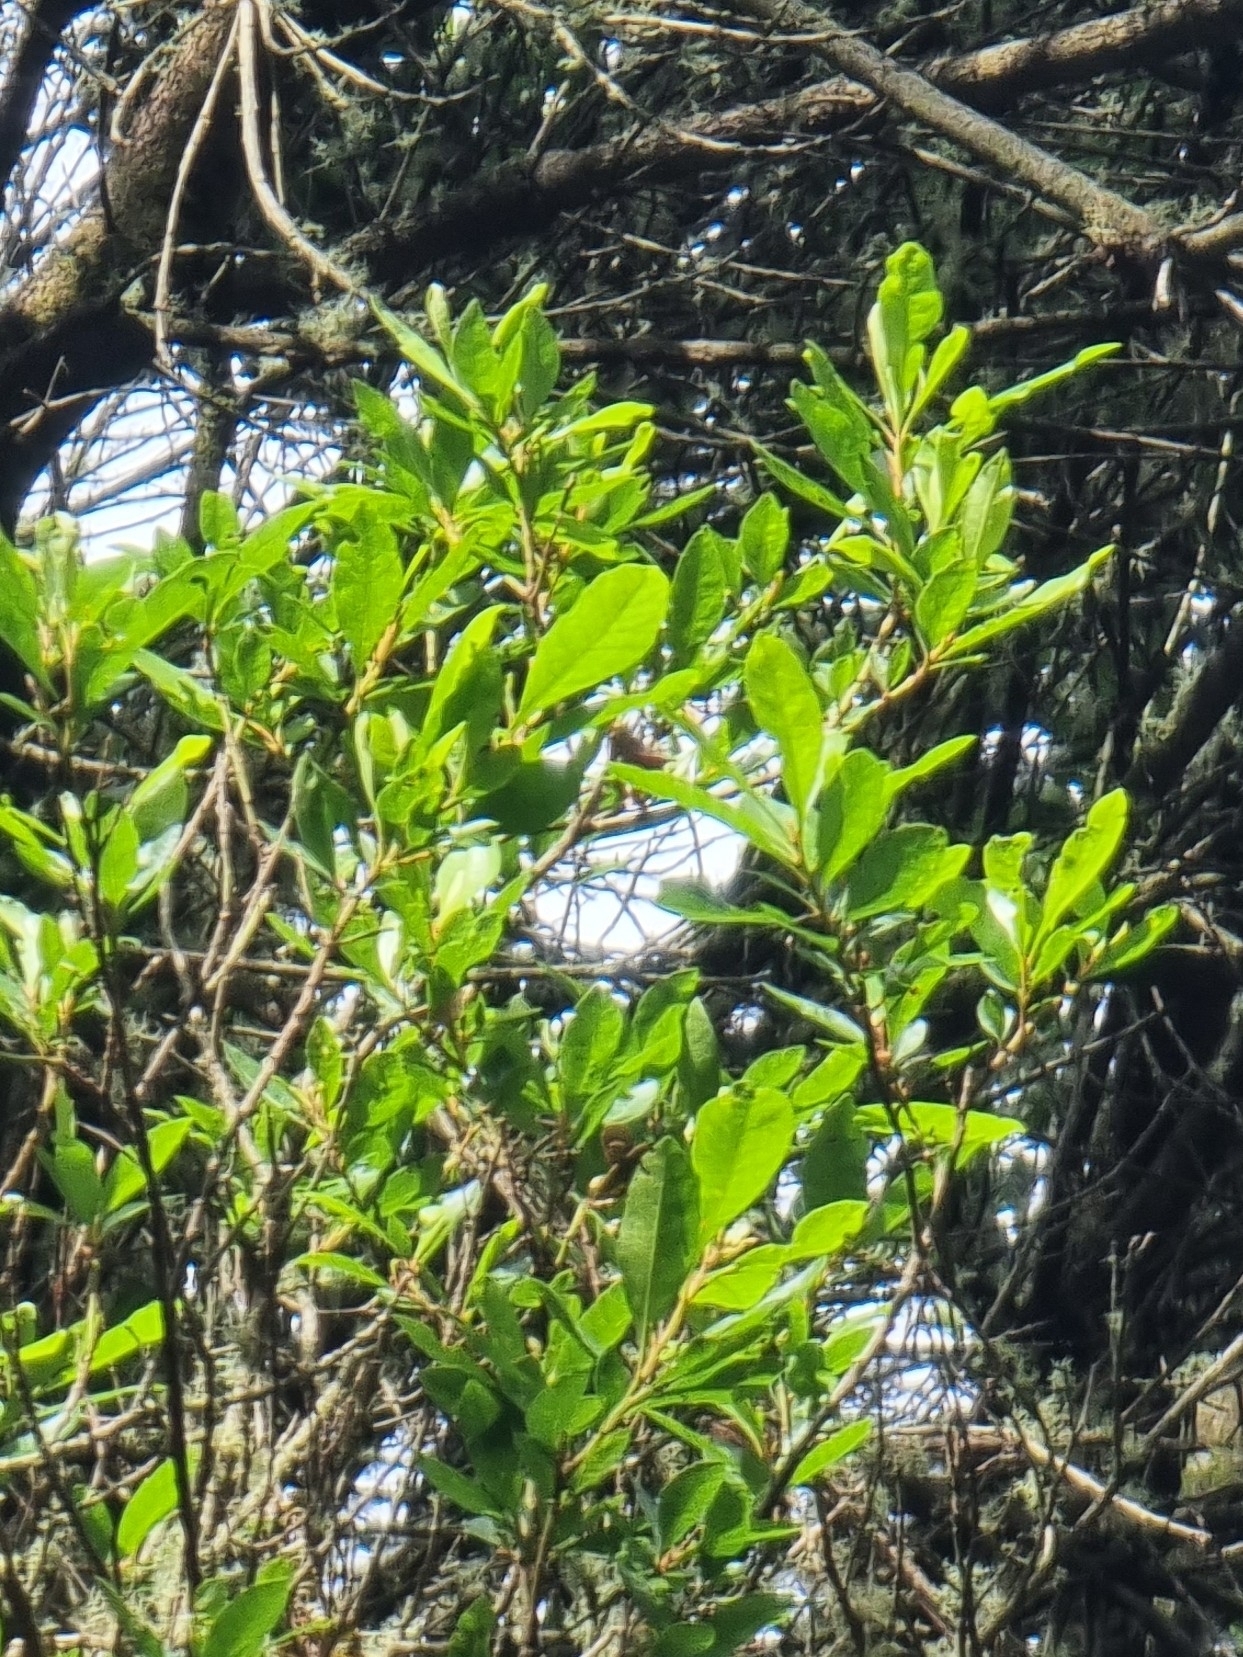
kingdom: Plantae
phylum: Tracheophyta
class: Magnoliopsida
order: Fagales
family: Myricaceae
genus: Morella
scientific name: Morella faya
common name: Firetree
